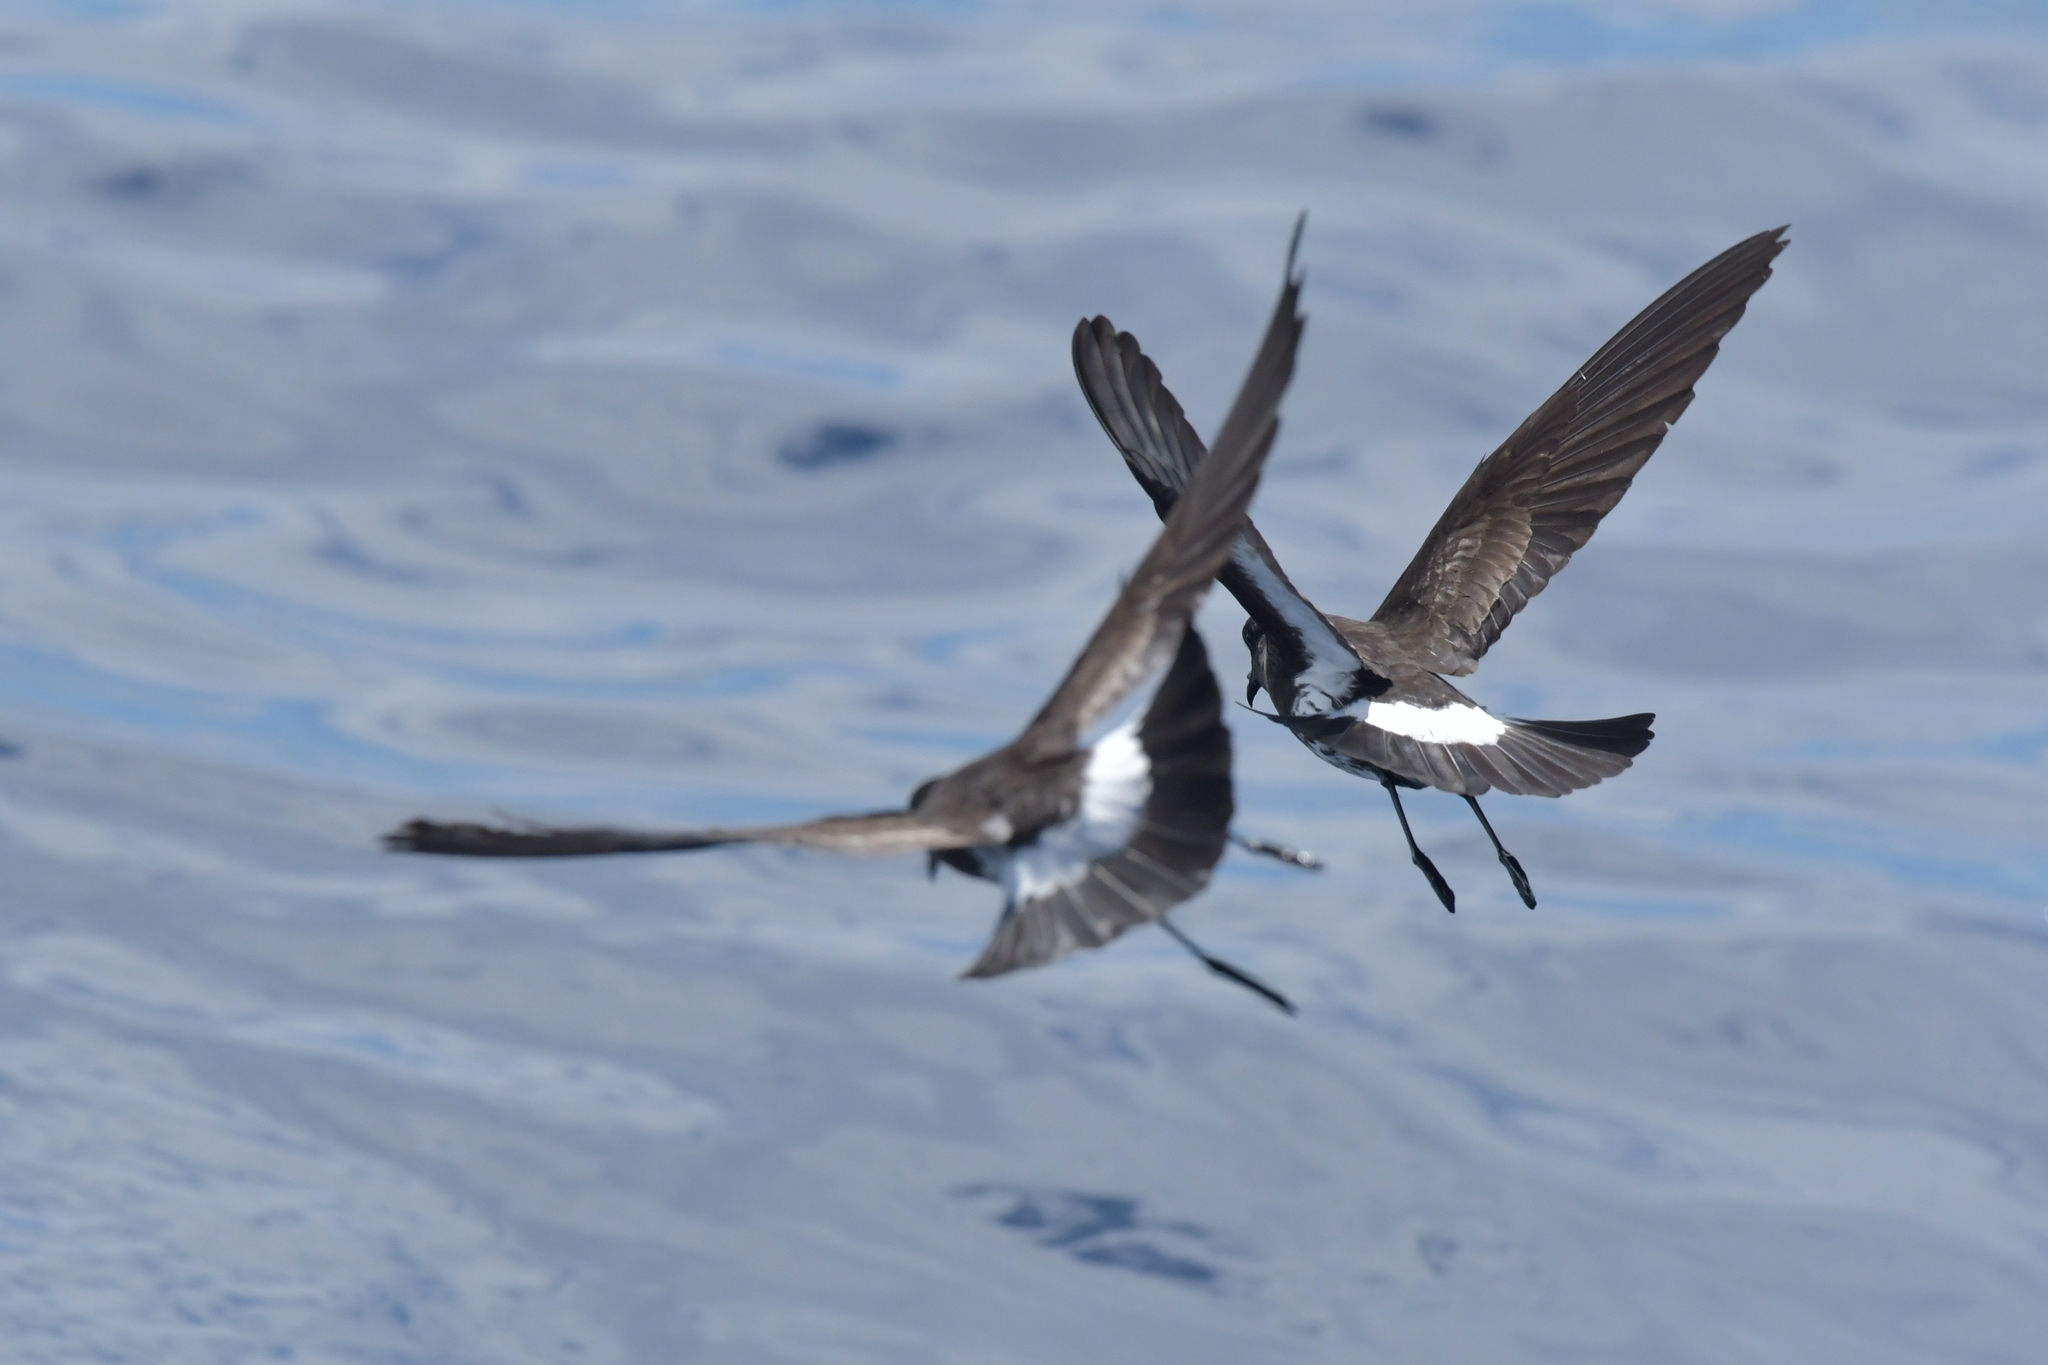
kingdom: Animalia
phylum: Chordata
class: Aves
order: Procellariiformes
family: Hydrobatidae
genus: Oceanites
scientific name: Oceanites maorianus
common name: New zealand storm petrel
